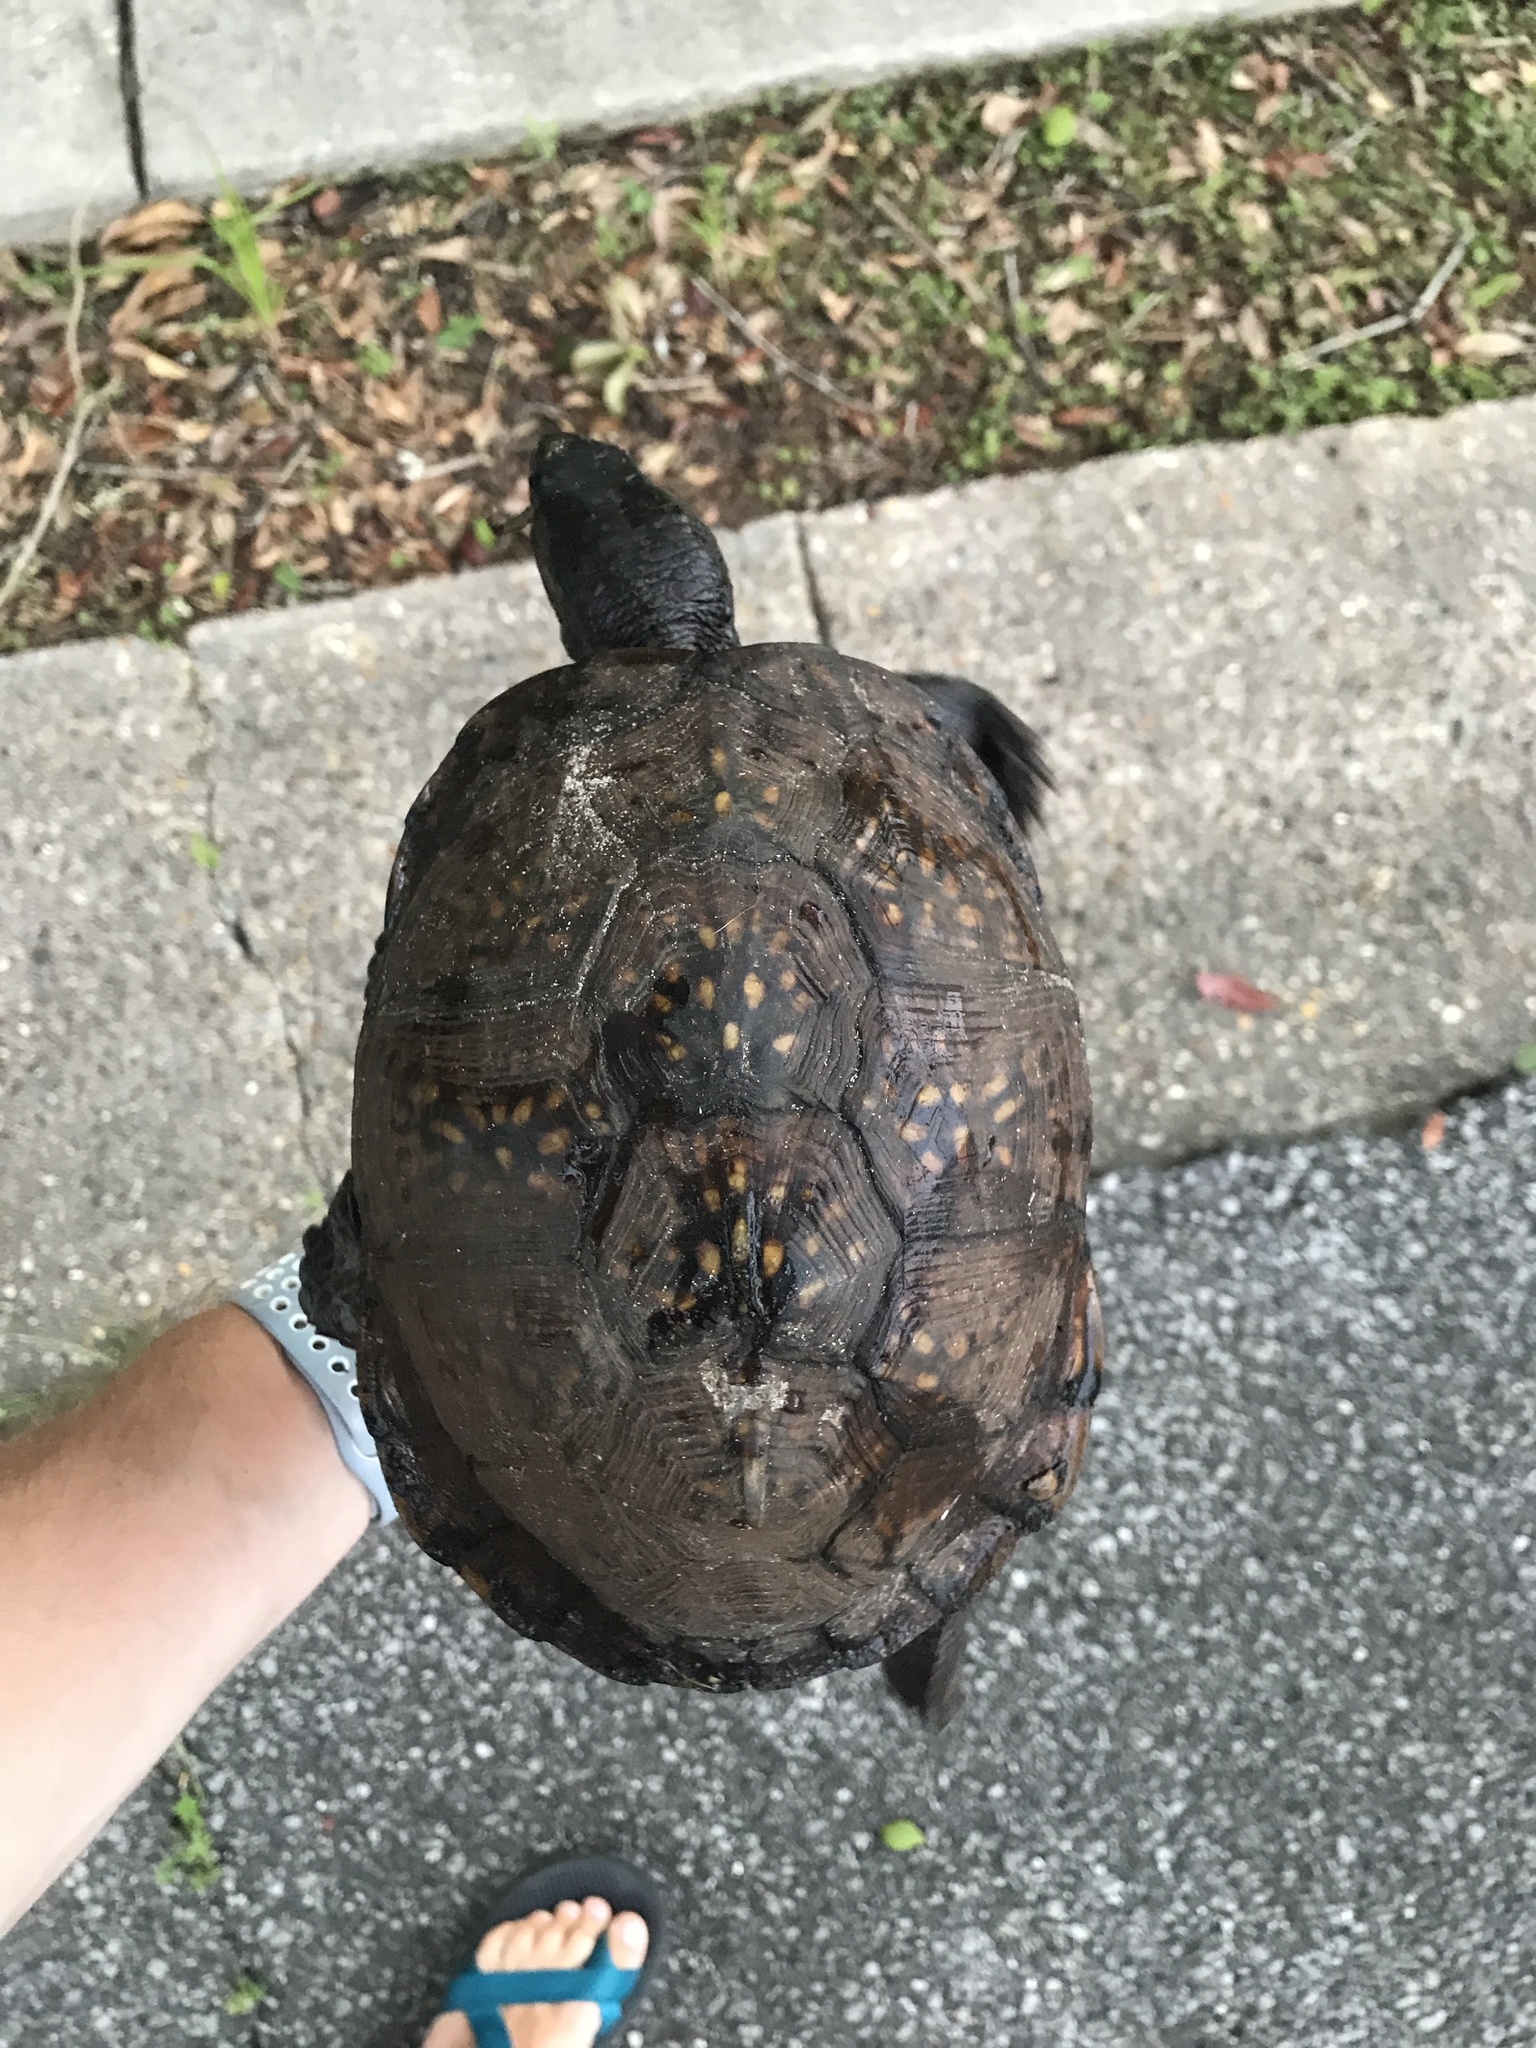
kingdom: Animalia
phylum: Chordata
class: Testudines
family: Emydidae
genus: Terrapene
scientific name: Terrapene carolina
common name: Common box turtle
